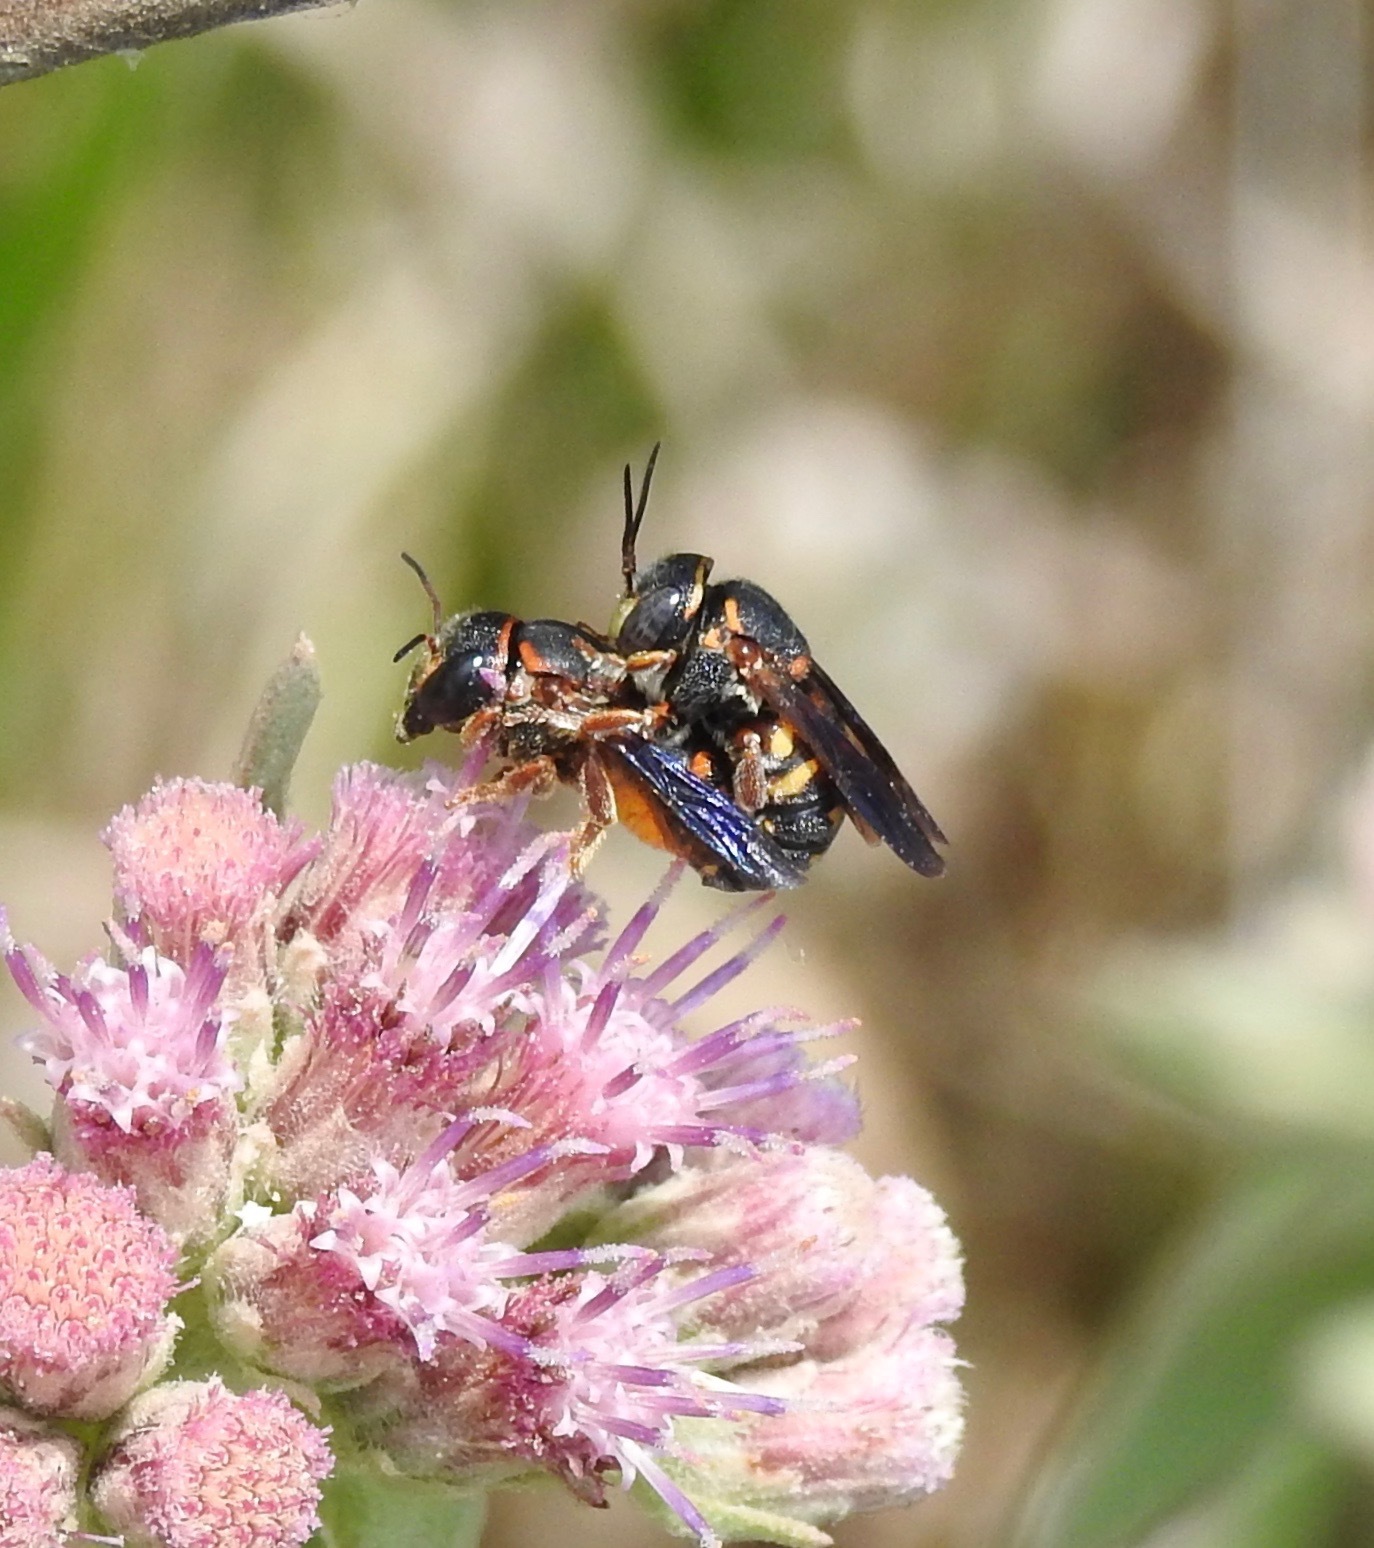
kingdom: Animalia
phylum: Arthropoda
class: Insecta
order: Hymenoptera
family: Megachilidae
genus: Anthidiellum
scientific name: Anthidiellum perplexum
